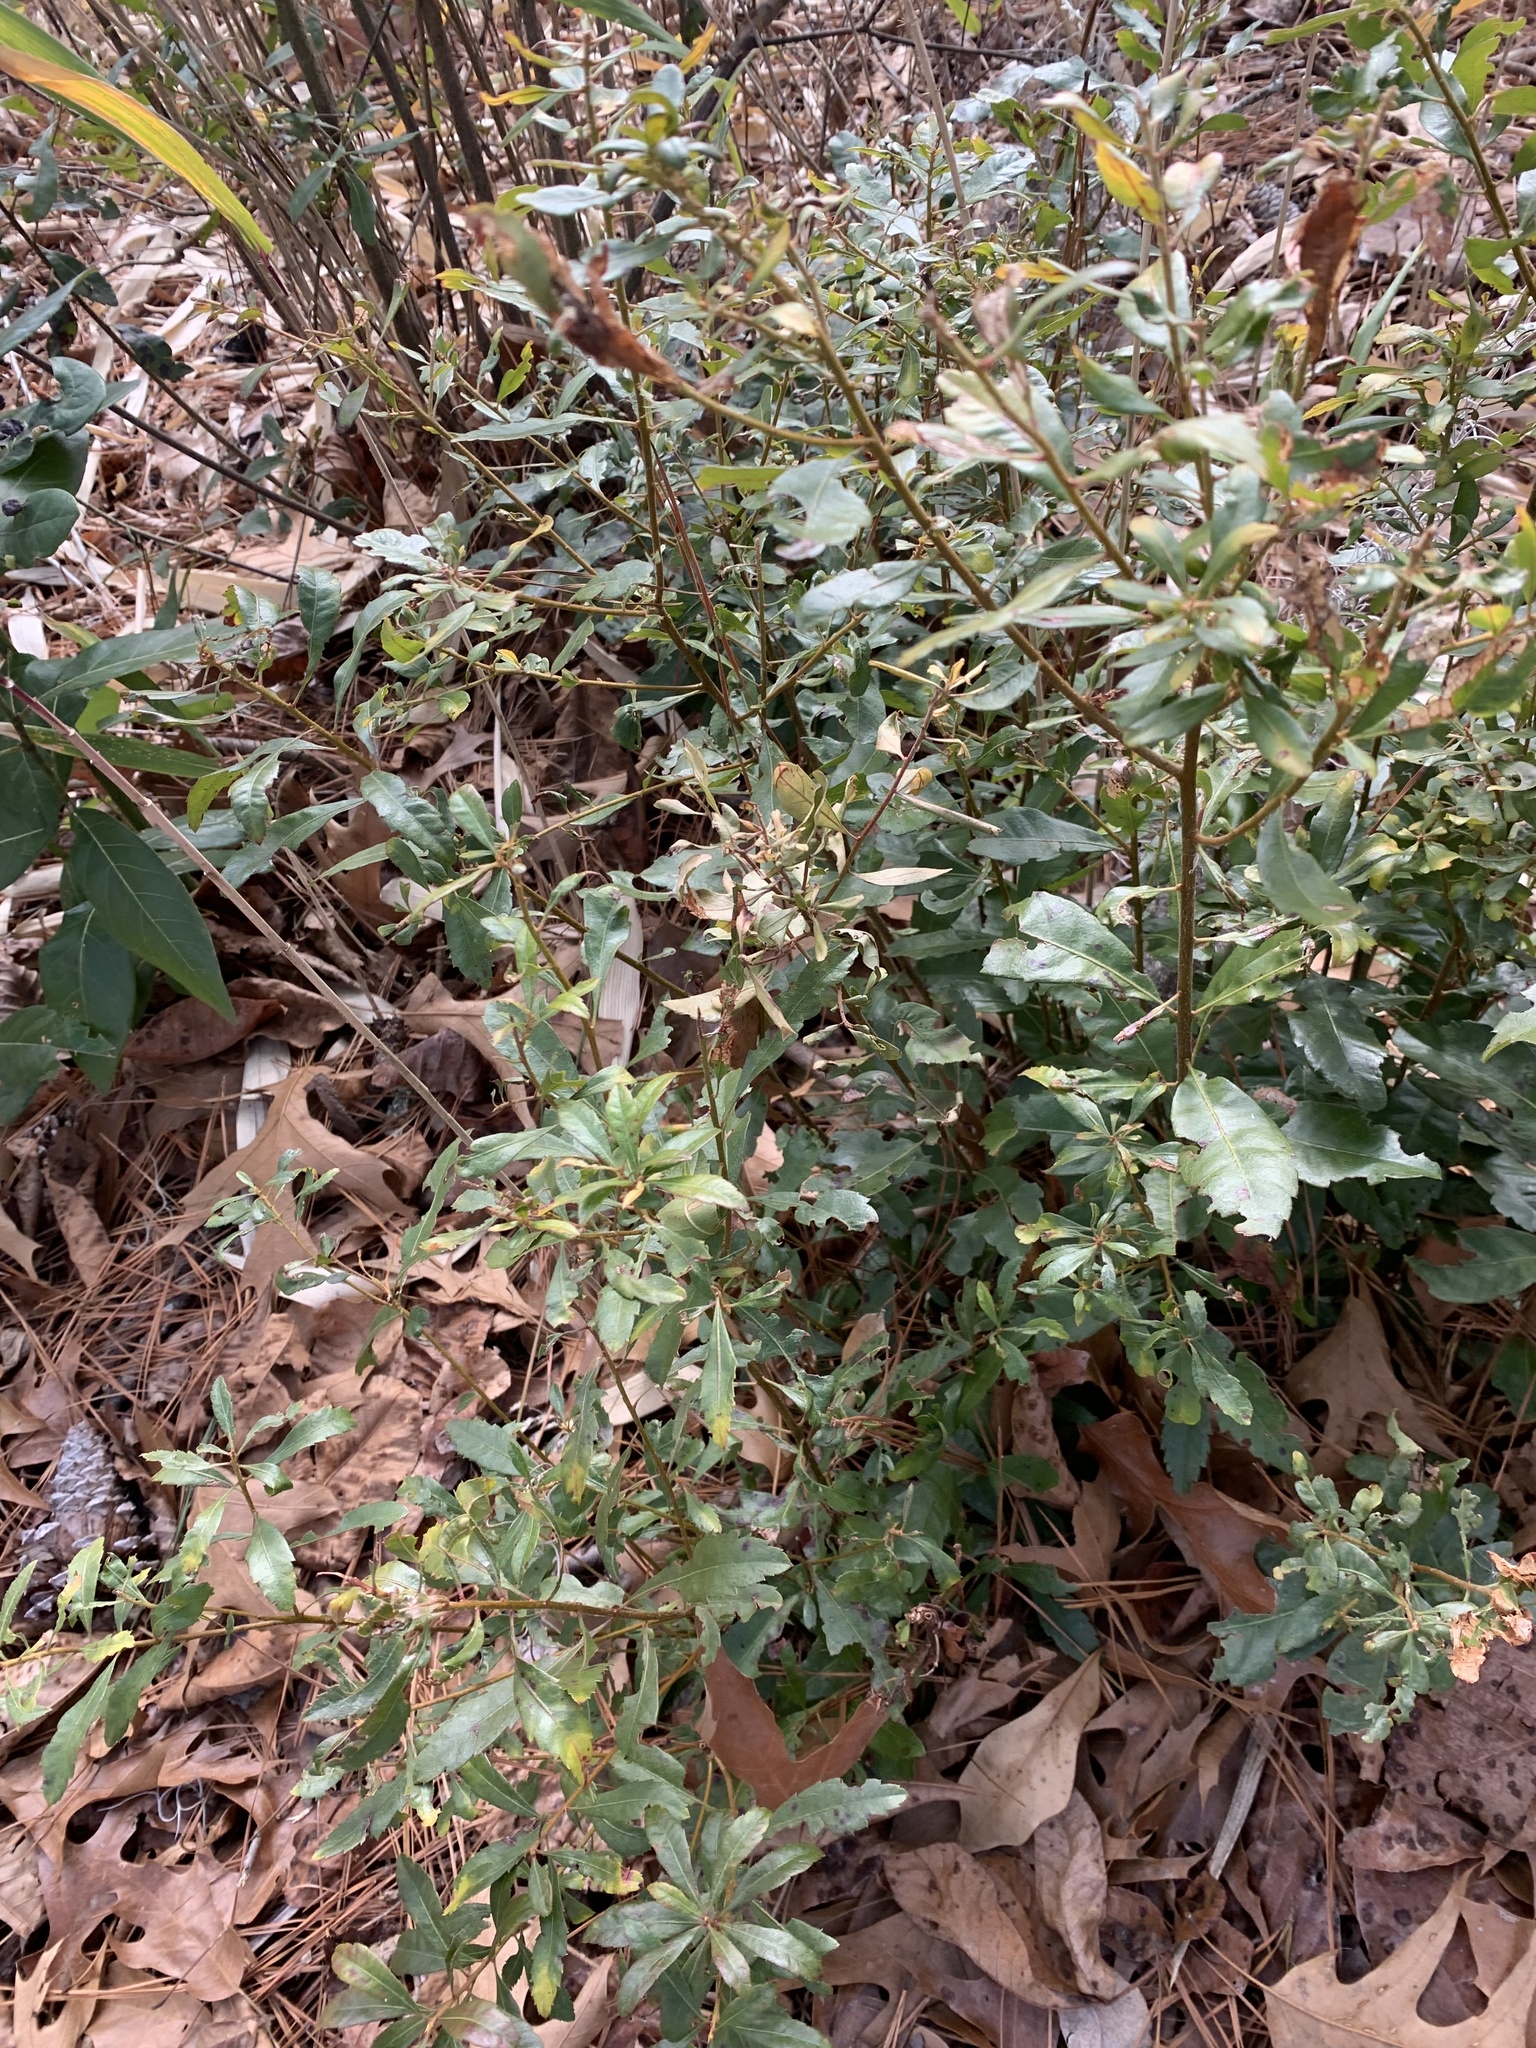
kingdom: Plantae
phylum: Tracheophyta
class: Magnoliopsida
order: Fagales
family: Myricaceae
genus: Morella
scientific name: Morella cerifera
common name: Wax myrtle
